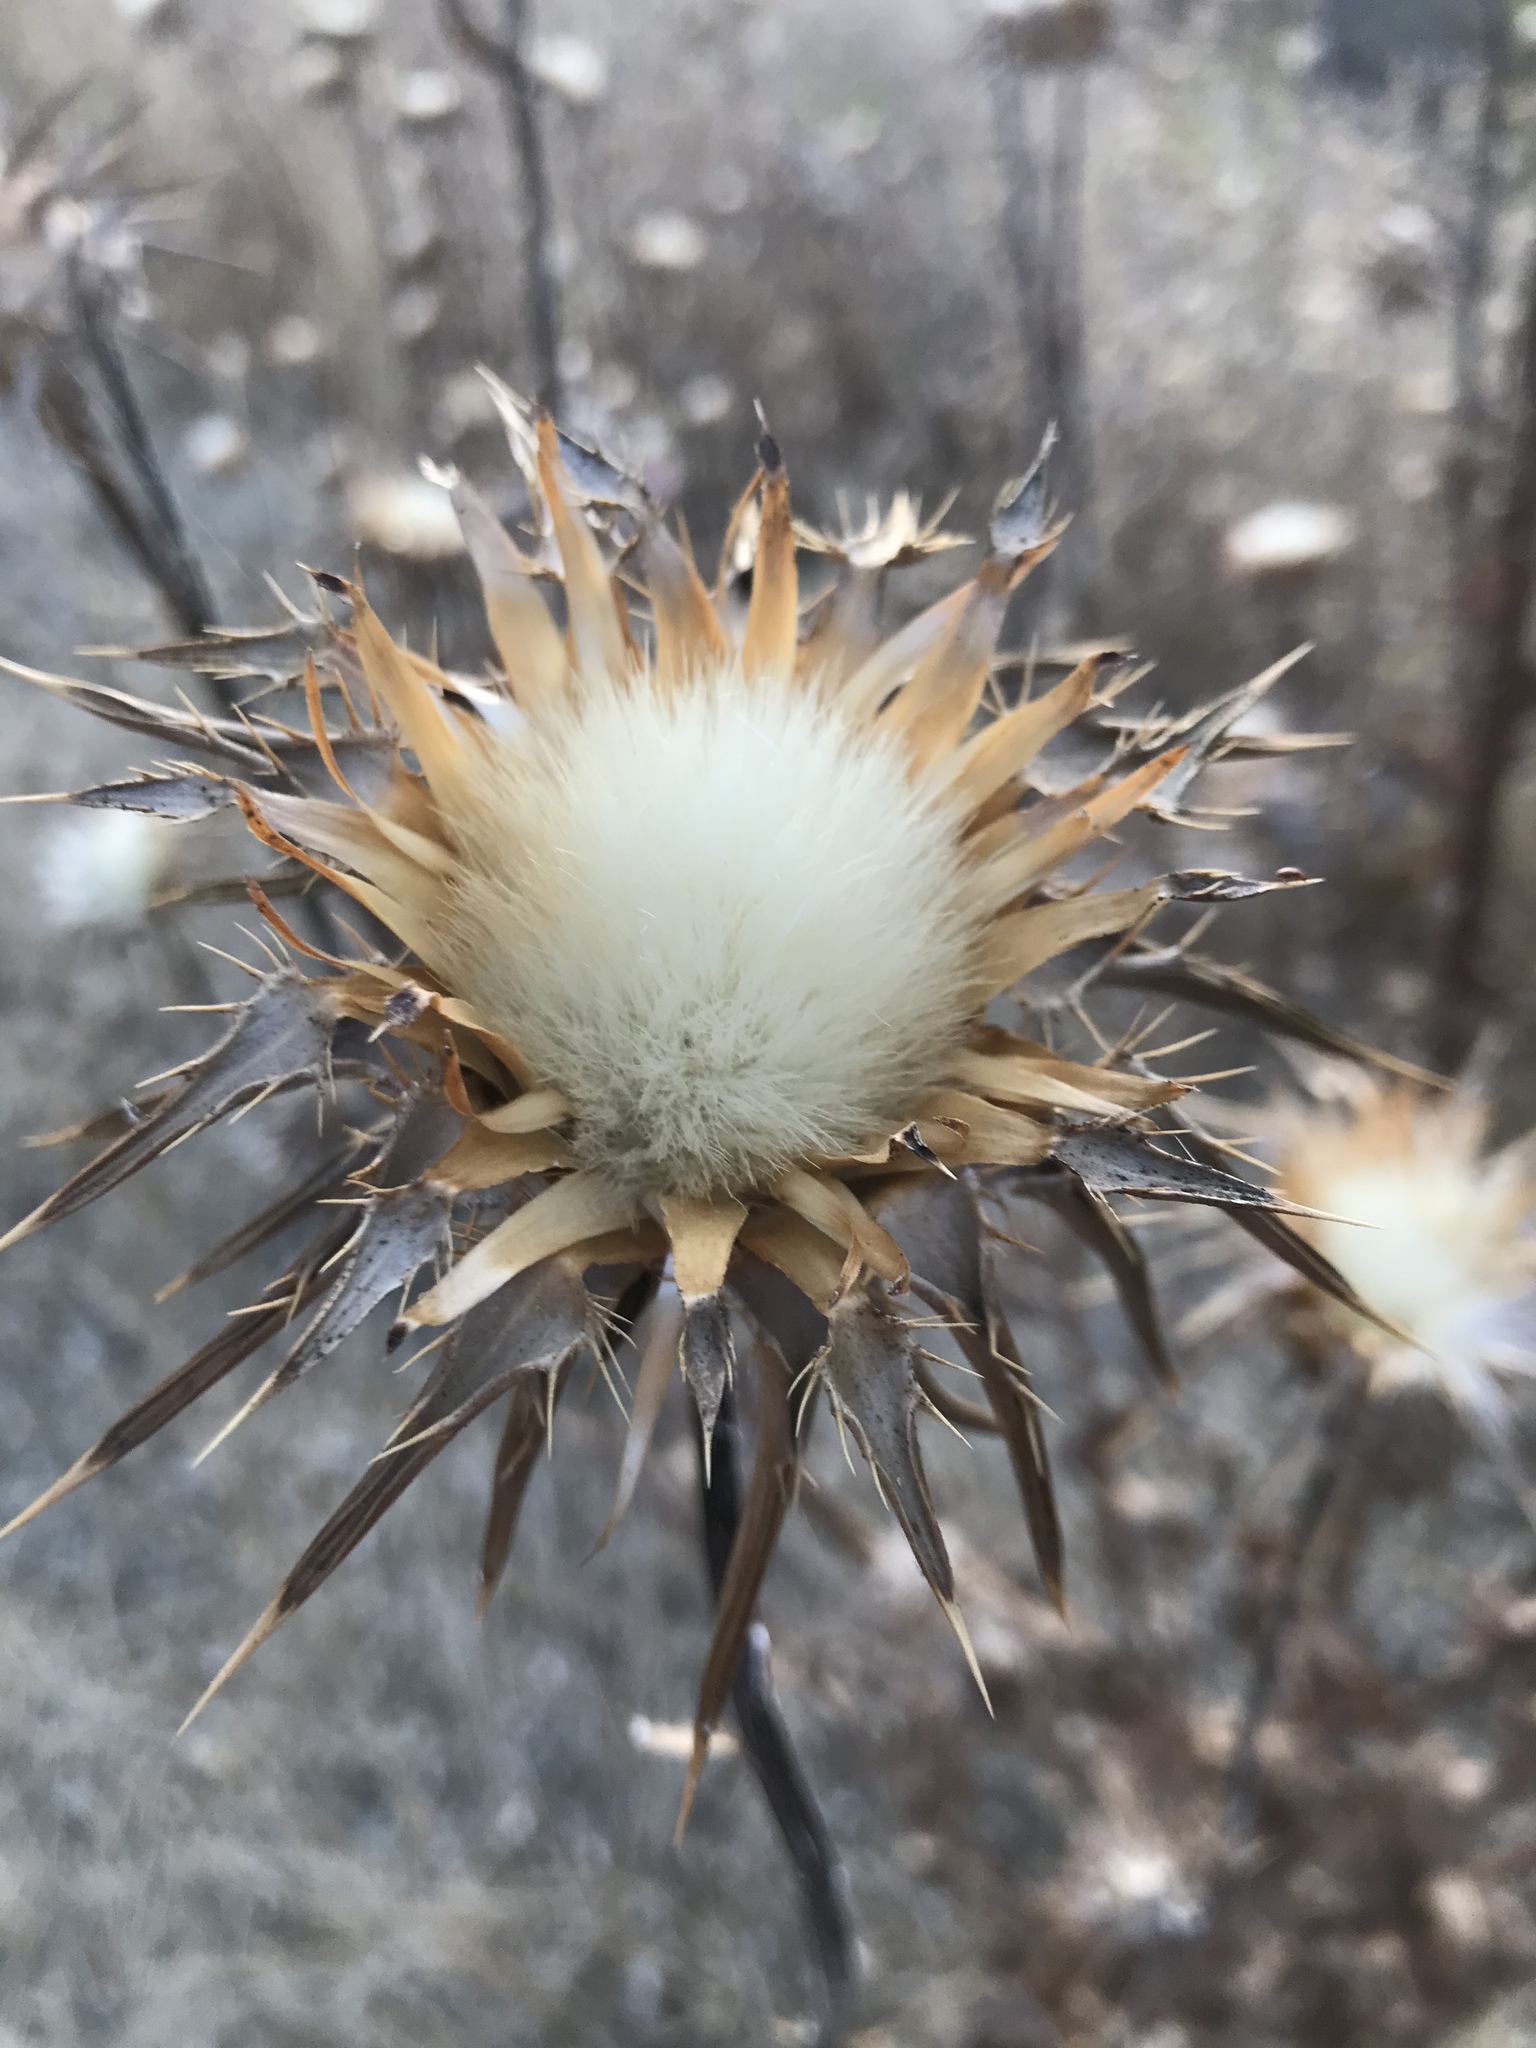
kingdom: Plantae
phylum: Tracheophyta
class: Magnoliopsida
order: Asterales
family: Asteraceae
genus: Silybum
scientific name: Silybum marianum
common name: Milk thistle
